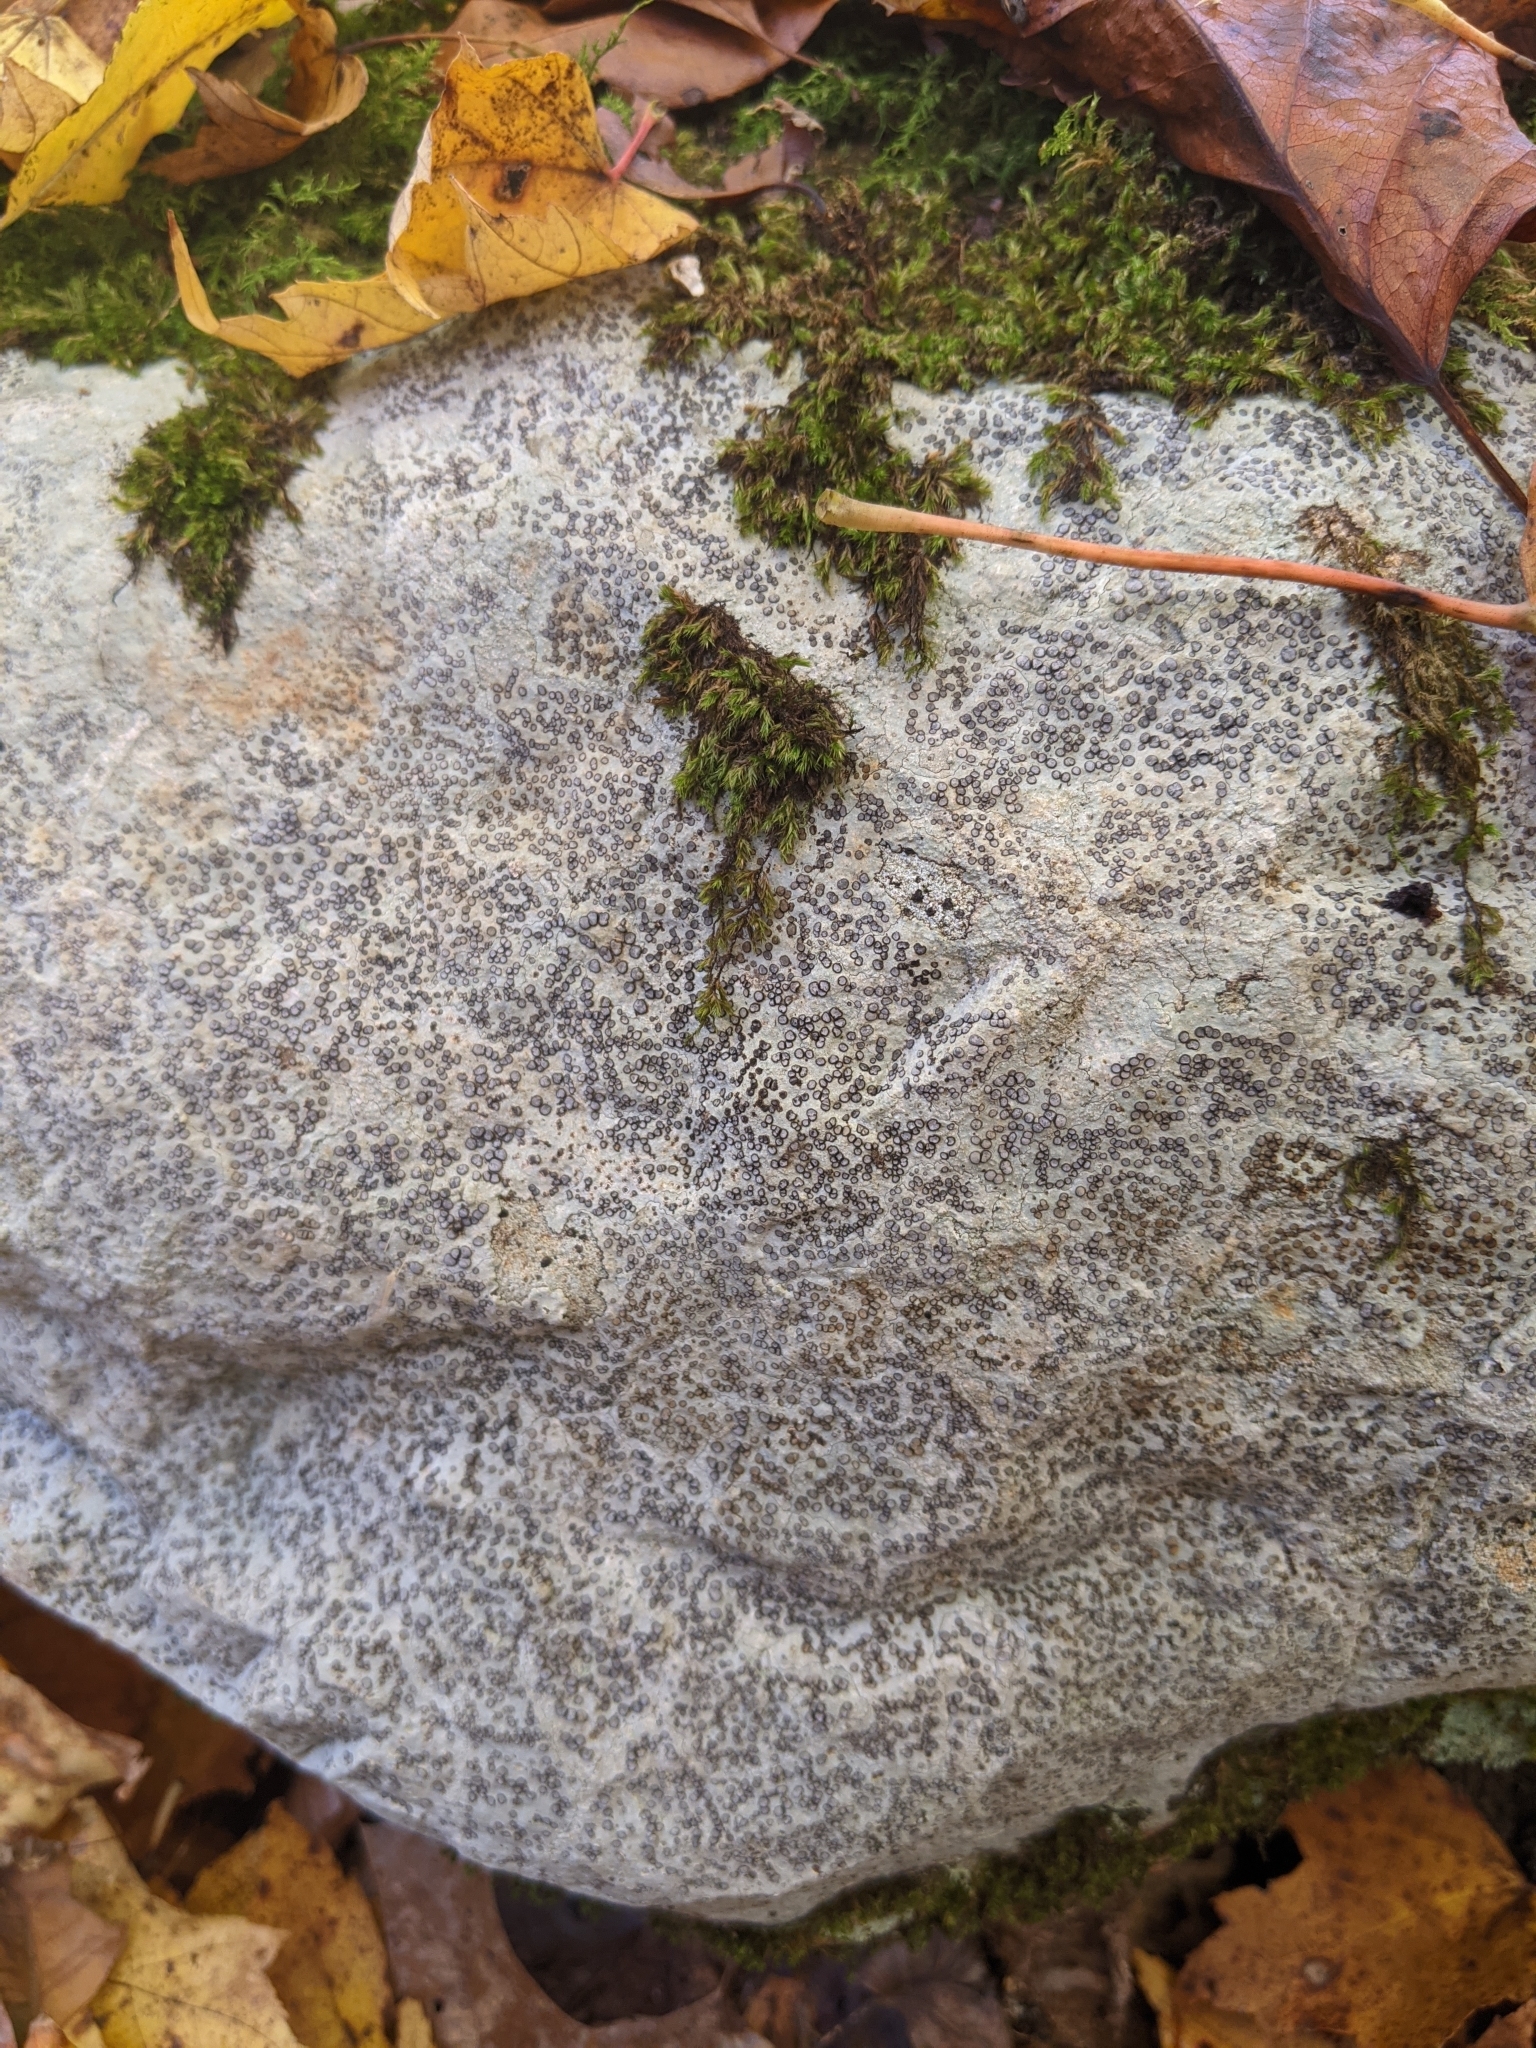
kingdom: Fungi
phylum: Ascomycota
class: Lecanoromycetes
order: Lecideales
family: Lecideaceae
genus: Porpidia
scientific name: Porpidia albocaerulescens
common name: Smokey-eyed boulder lichen
